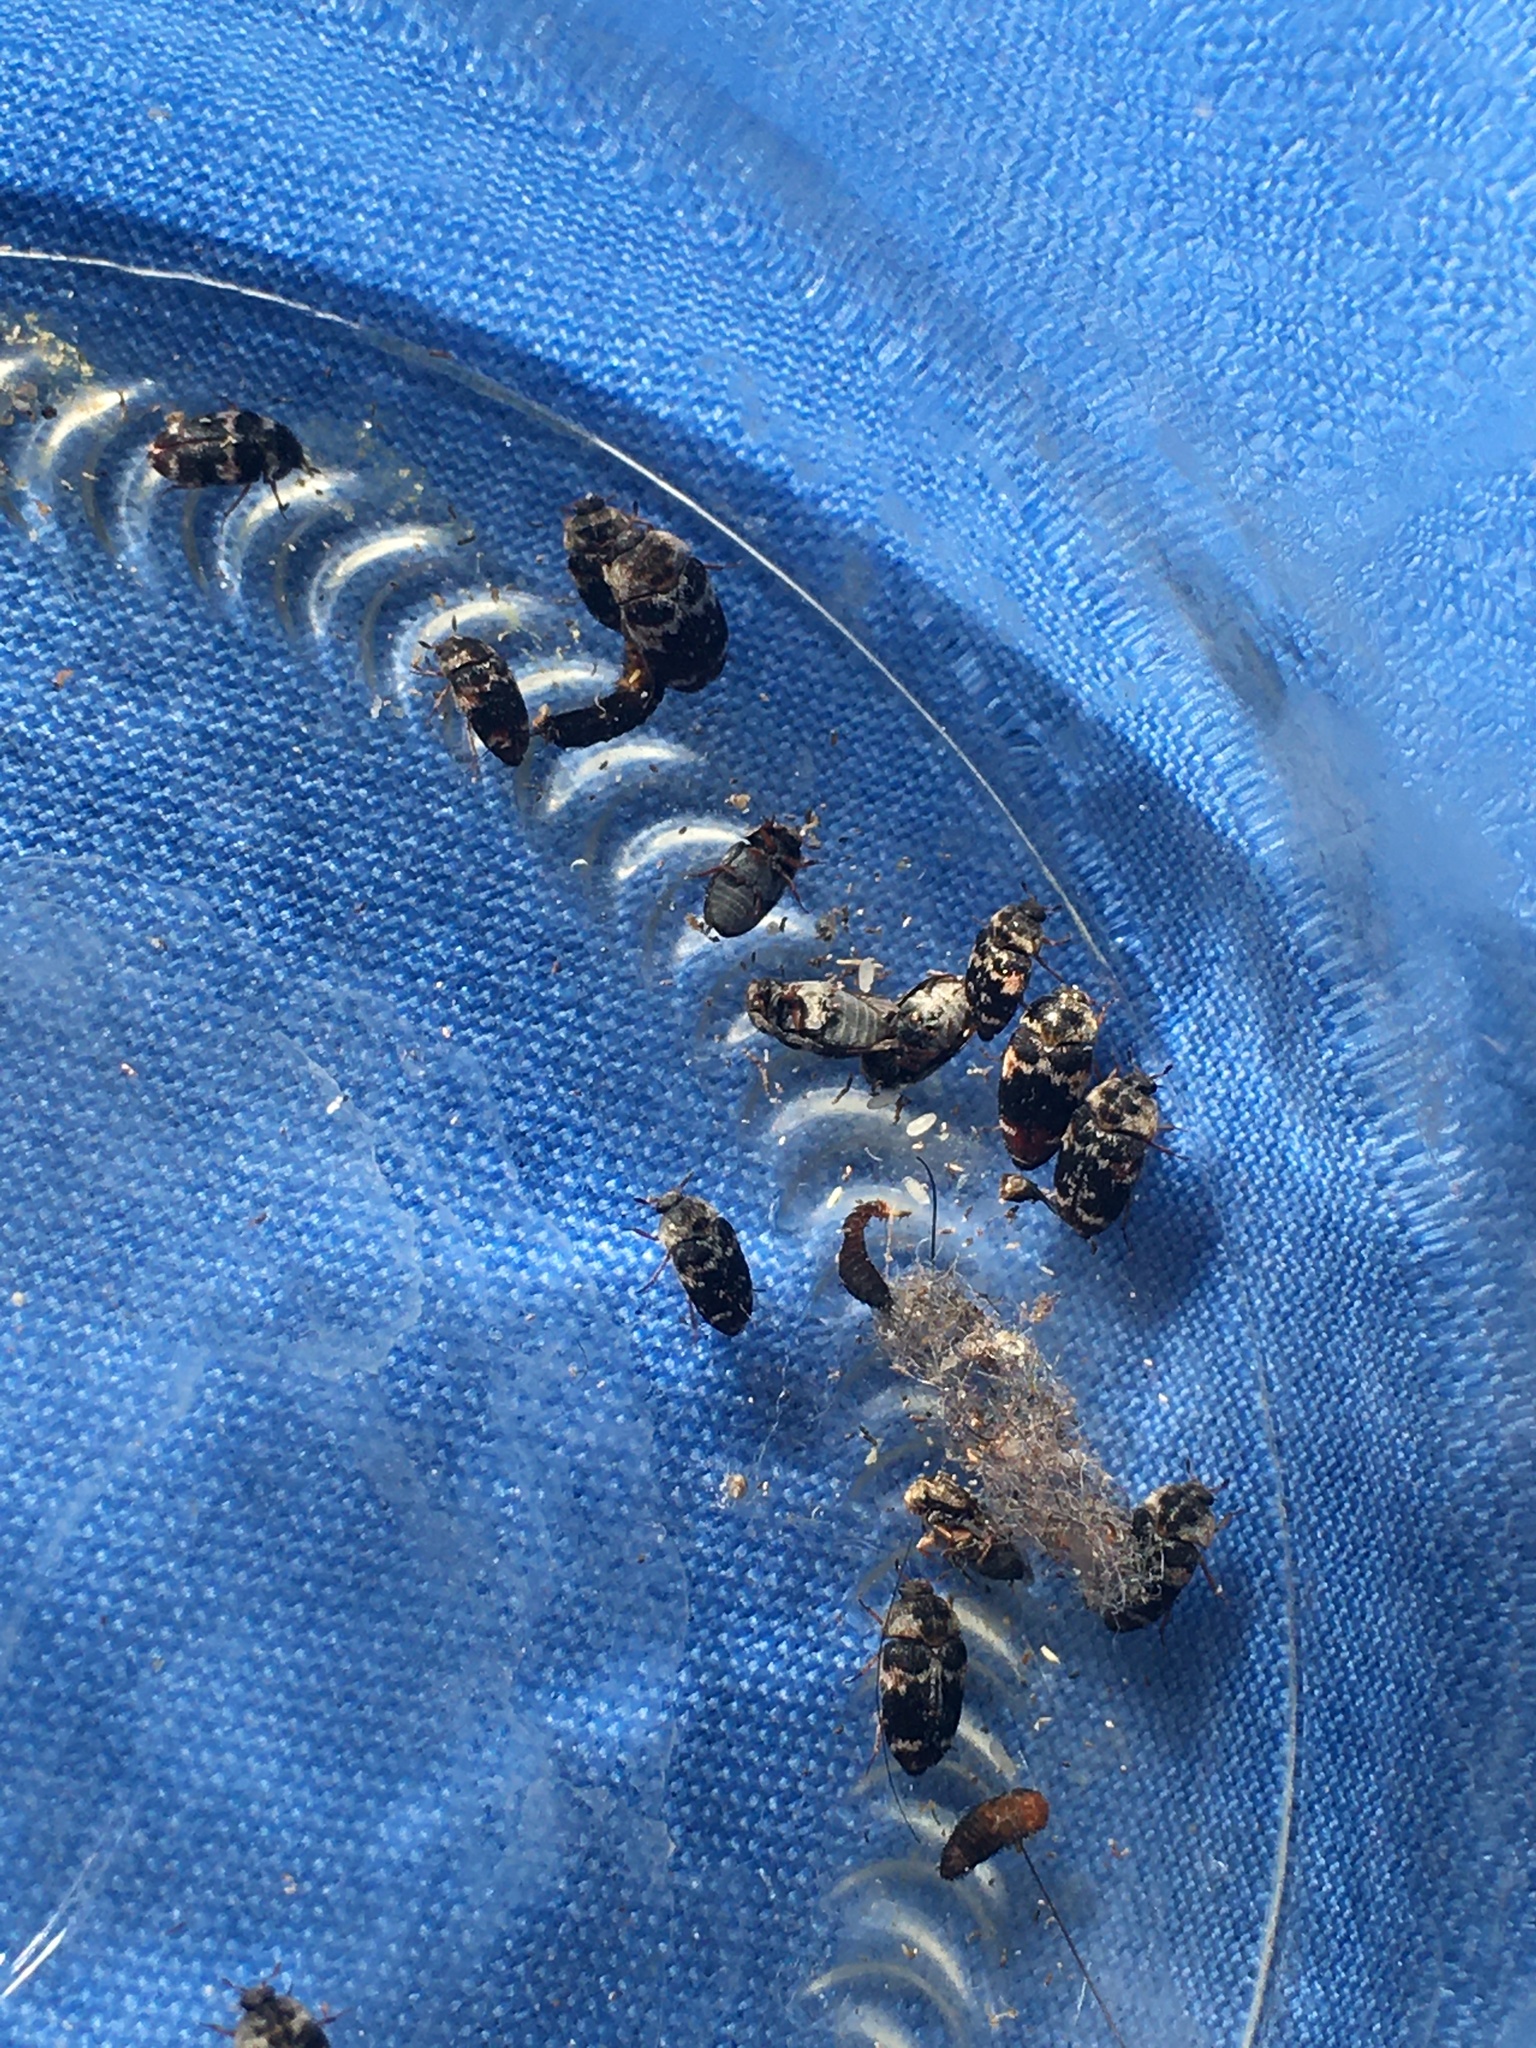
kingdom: Animalia
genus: Paranovelsis
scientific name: Paranovelsis
